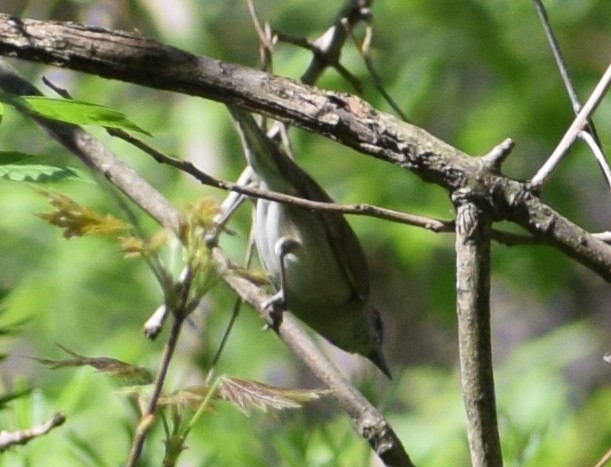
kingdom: Animalia
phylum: Chordata
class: Aves
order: Passeriformes
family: Sylviidae
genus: Sylvia
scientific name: Sylvia atricapilla
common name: Eurasian blackcap
